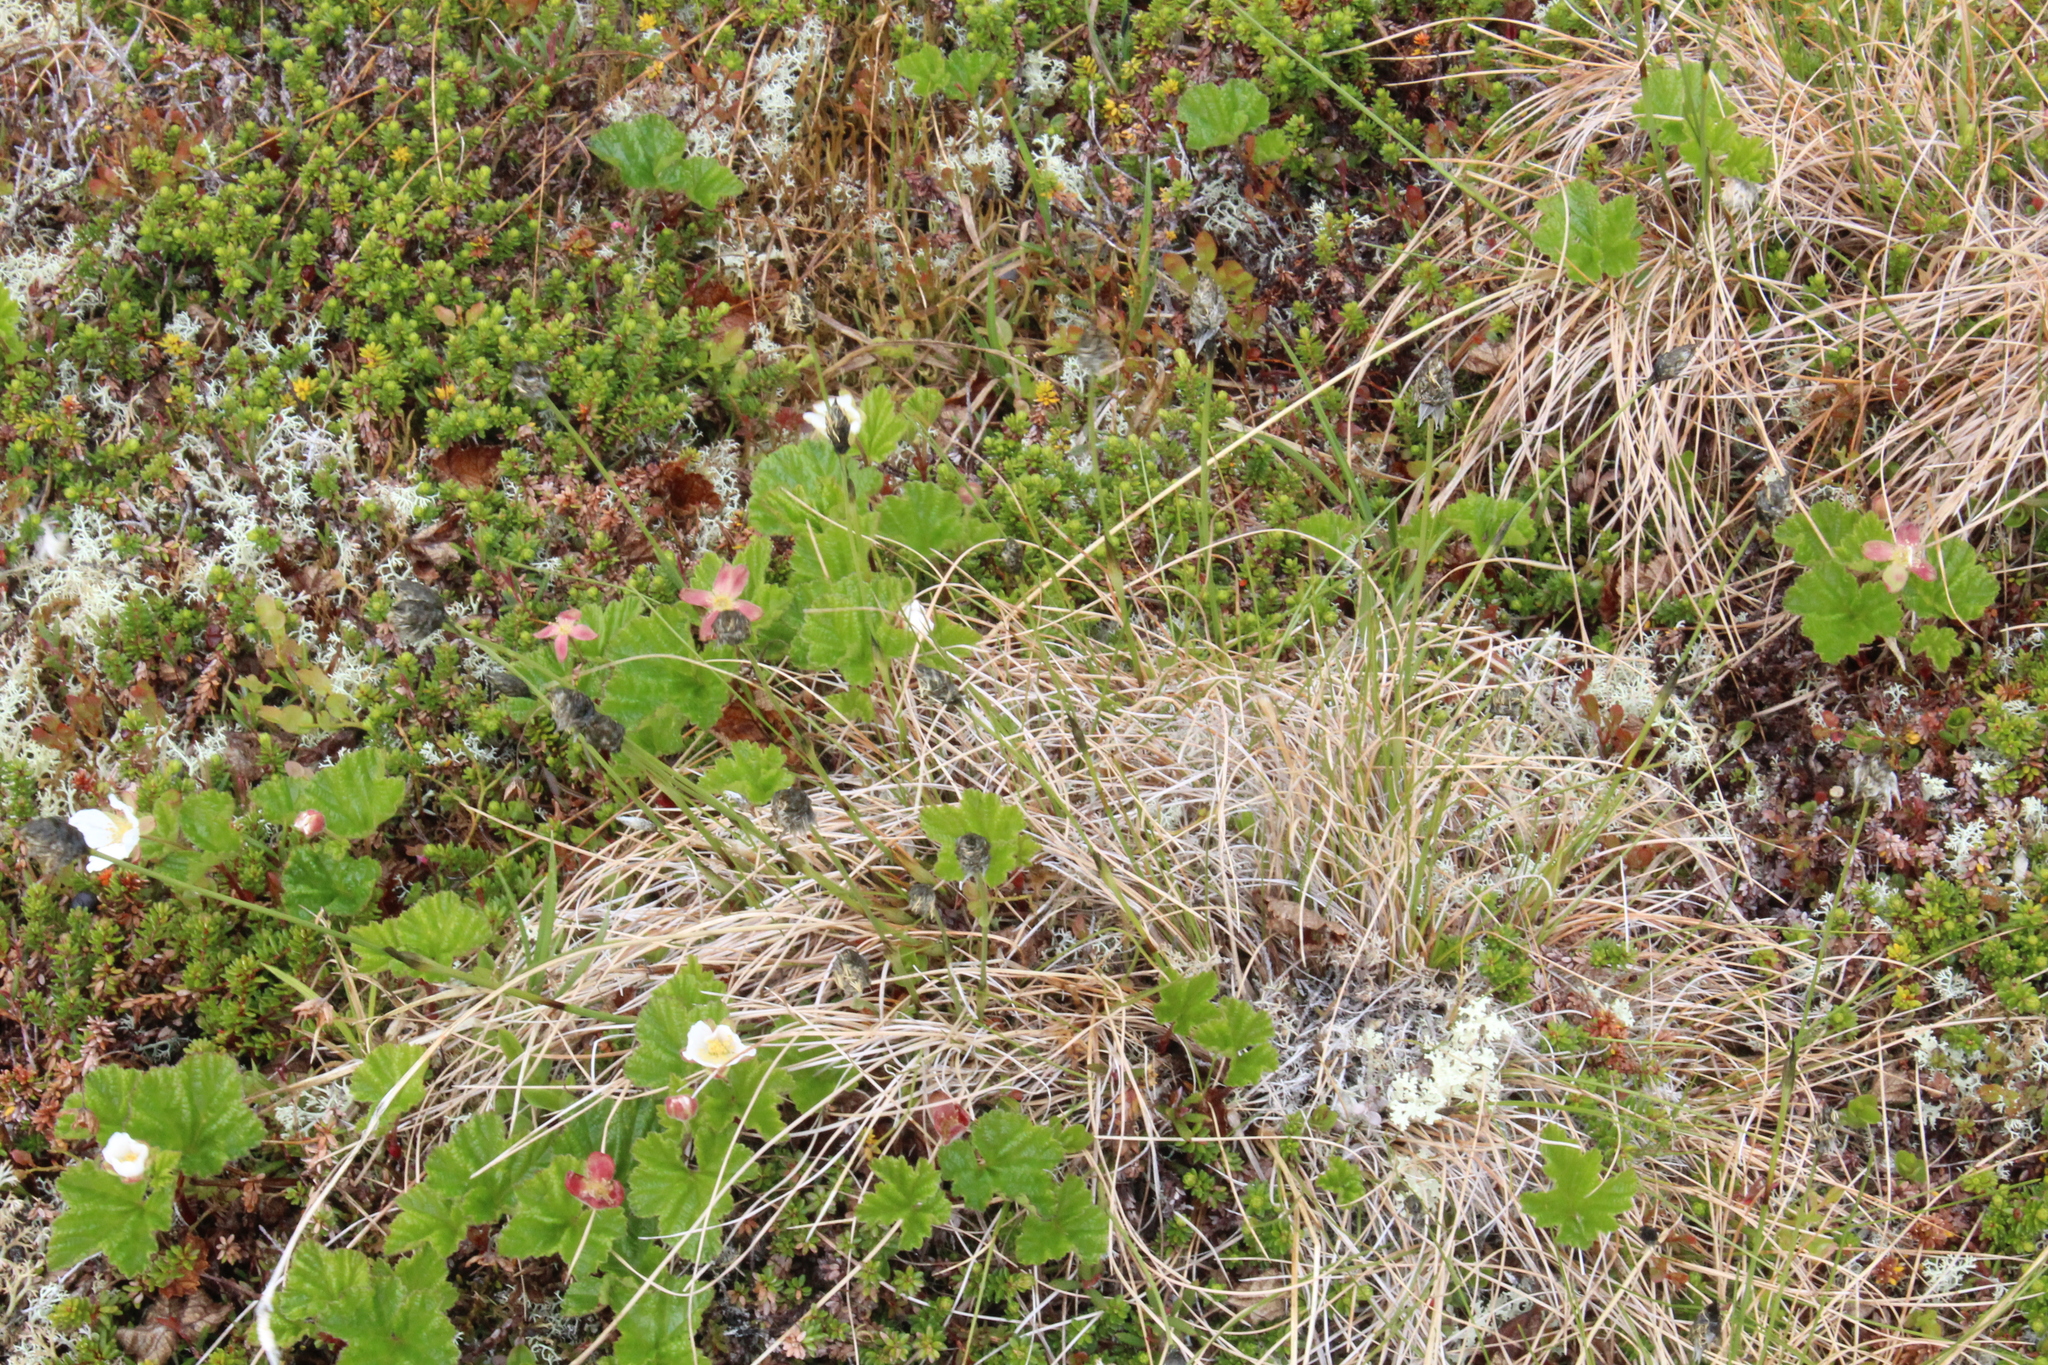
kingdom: Plantae
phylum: Tracheophyta
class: Liliopsida
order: Poales
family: Cyperaceae
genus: Eriophorum
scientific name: Eriophorum vaginatum
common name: Hare's-tail cottongrass
